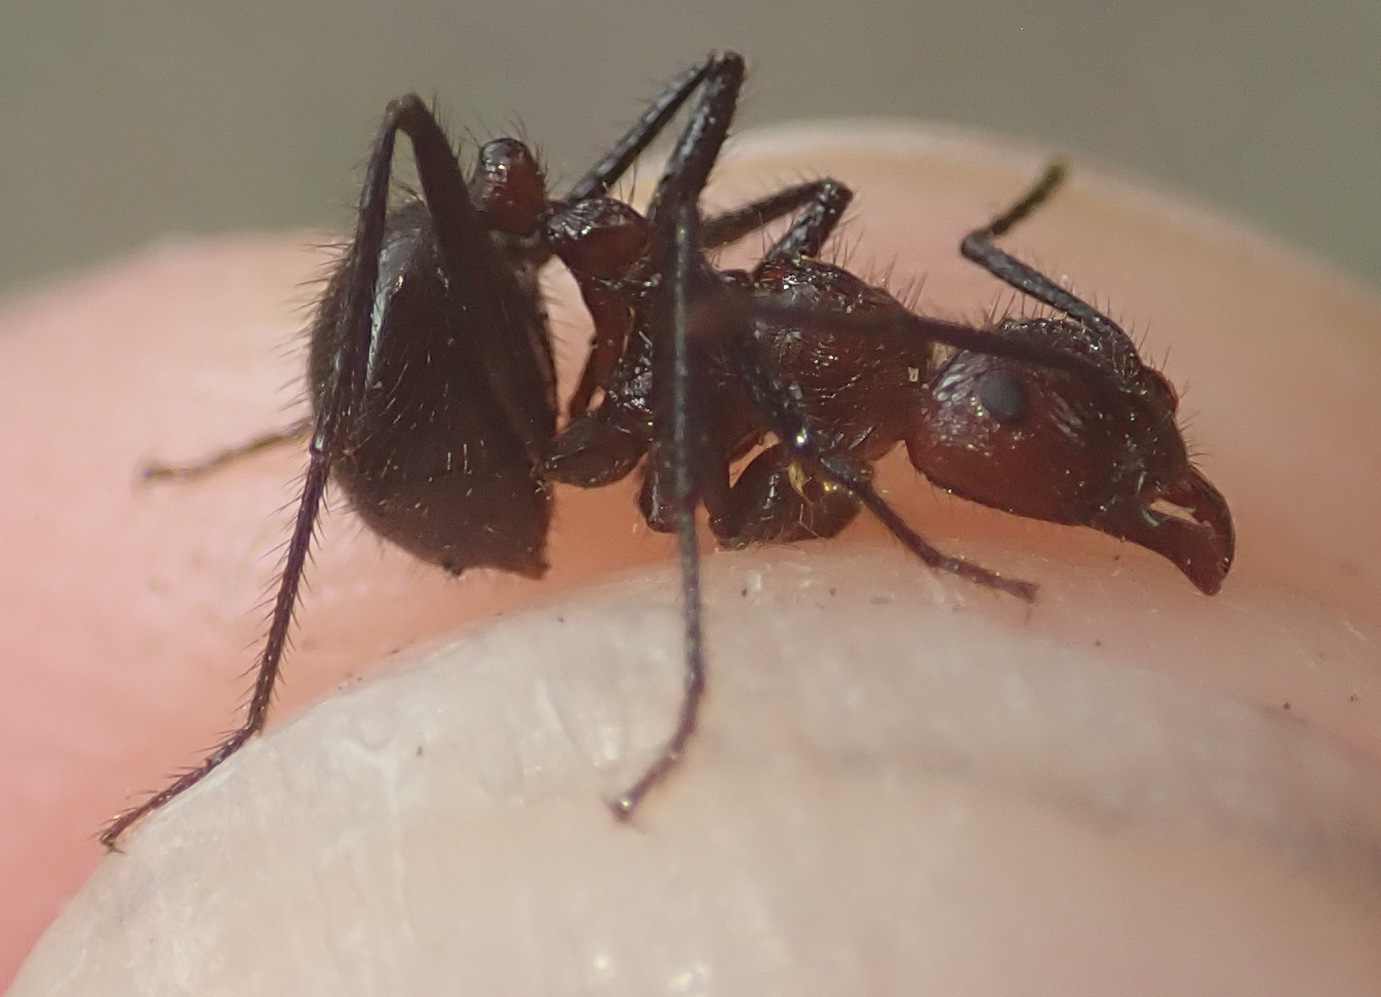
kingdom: Animalia
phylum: Arthropoda
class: Insecta
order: Hymenoptera
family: Formicidae
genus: Myrmicaria
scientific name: Myrmicaria baumi
